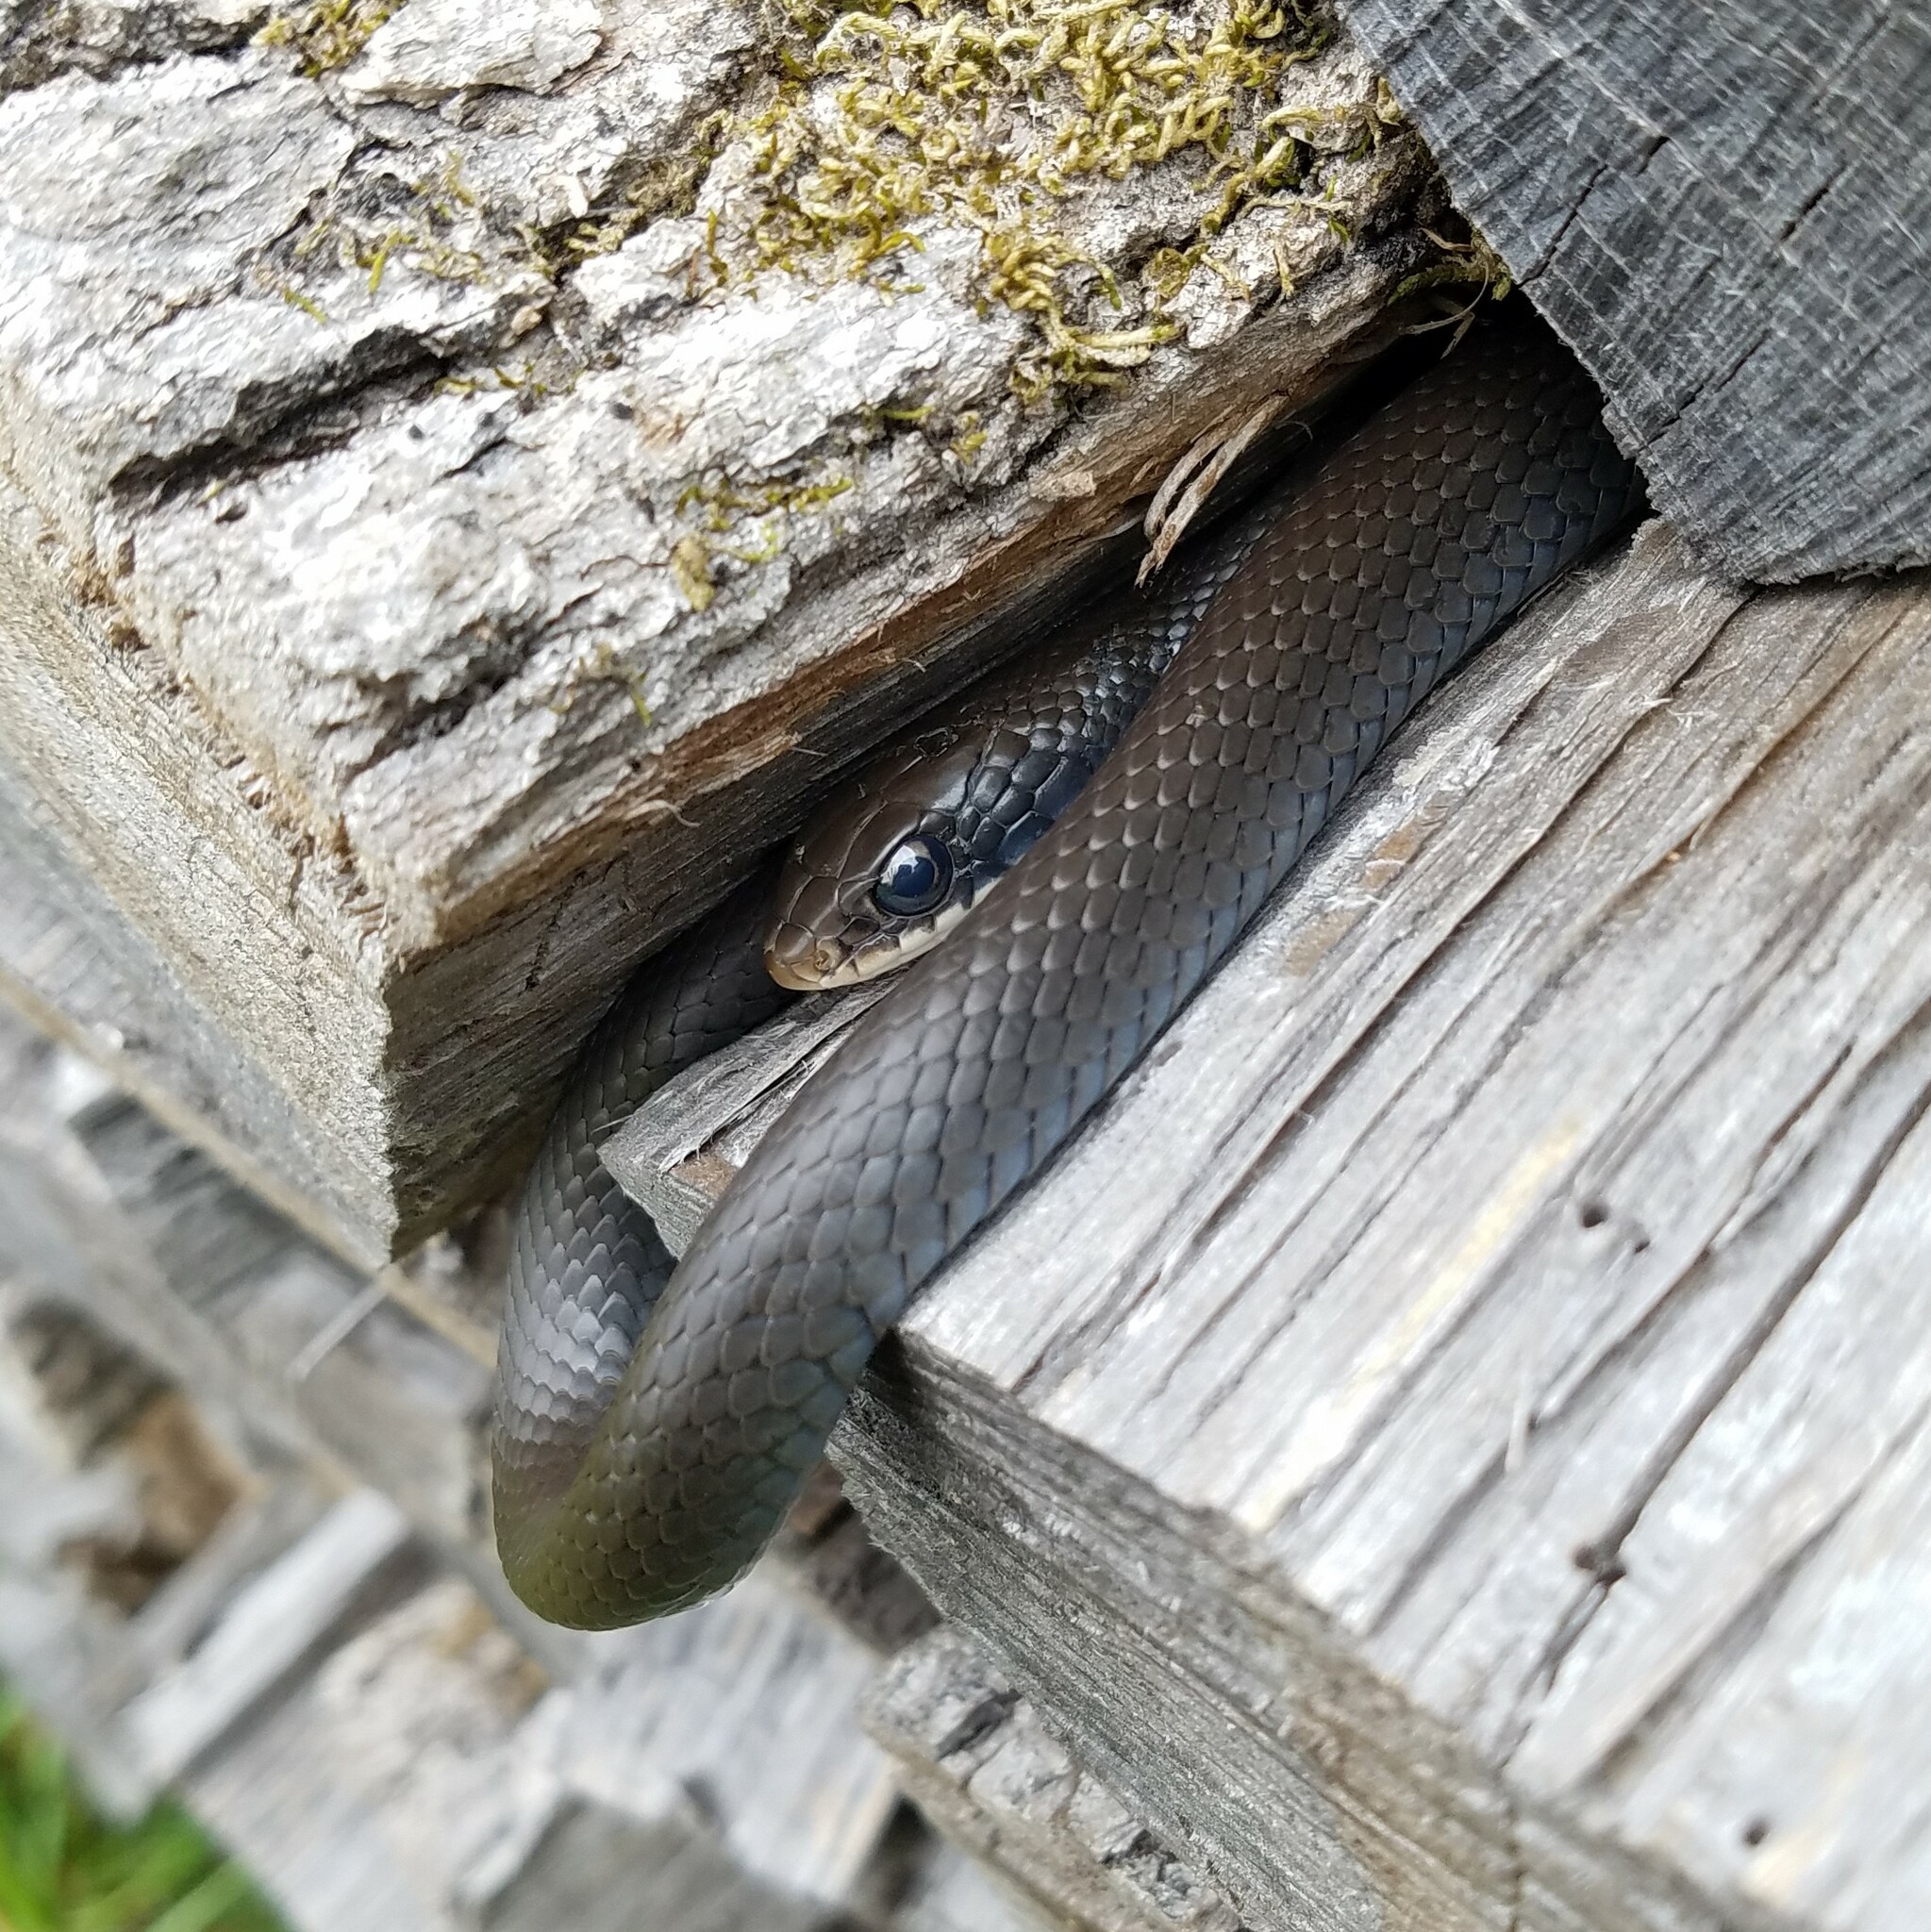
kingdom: Animalia
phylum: Chordata
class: Squamata
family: Colubridae
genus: Coluber
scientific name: Coluber constrictor
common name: Eastern racer
